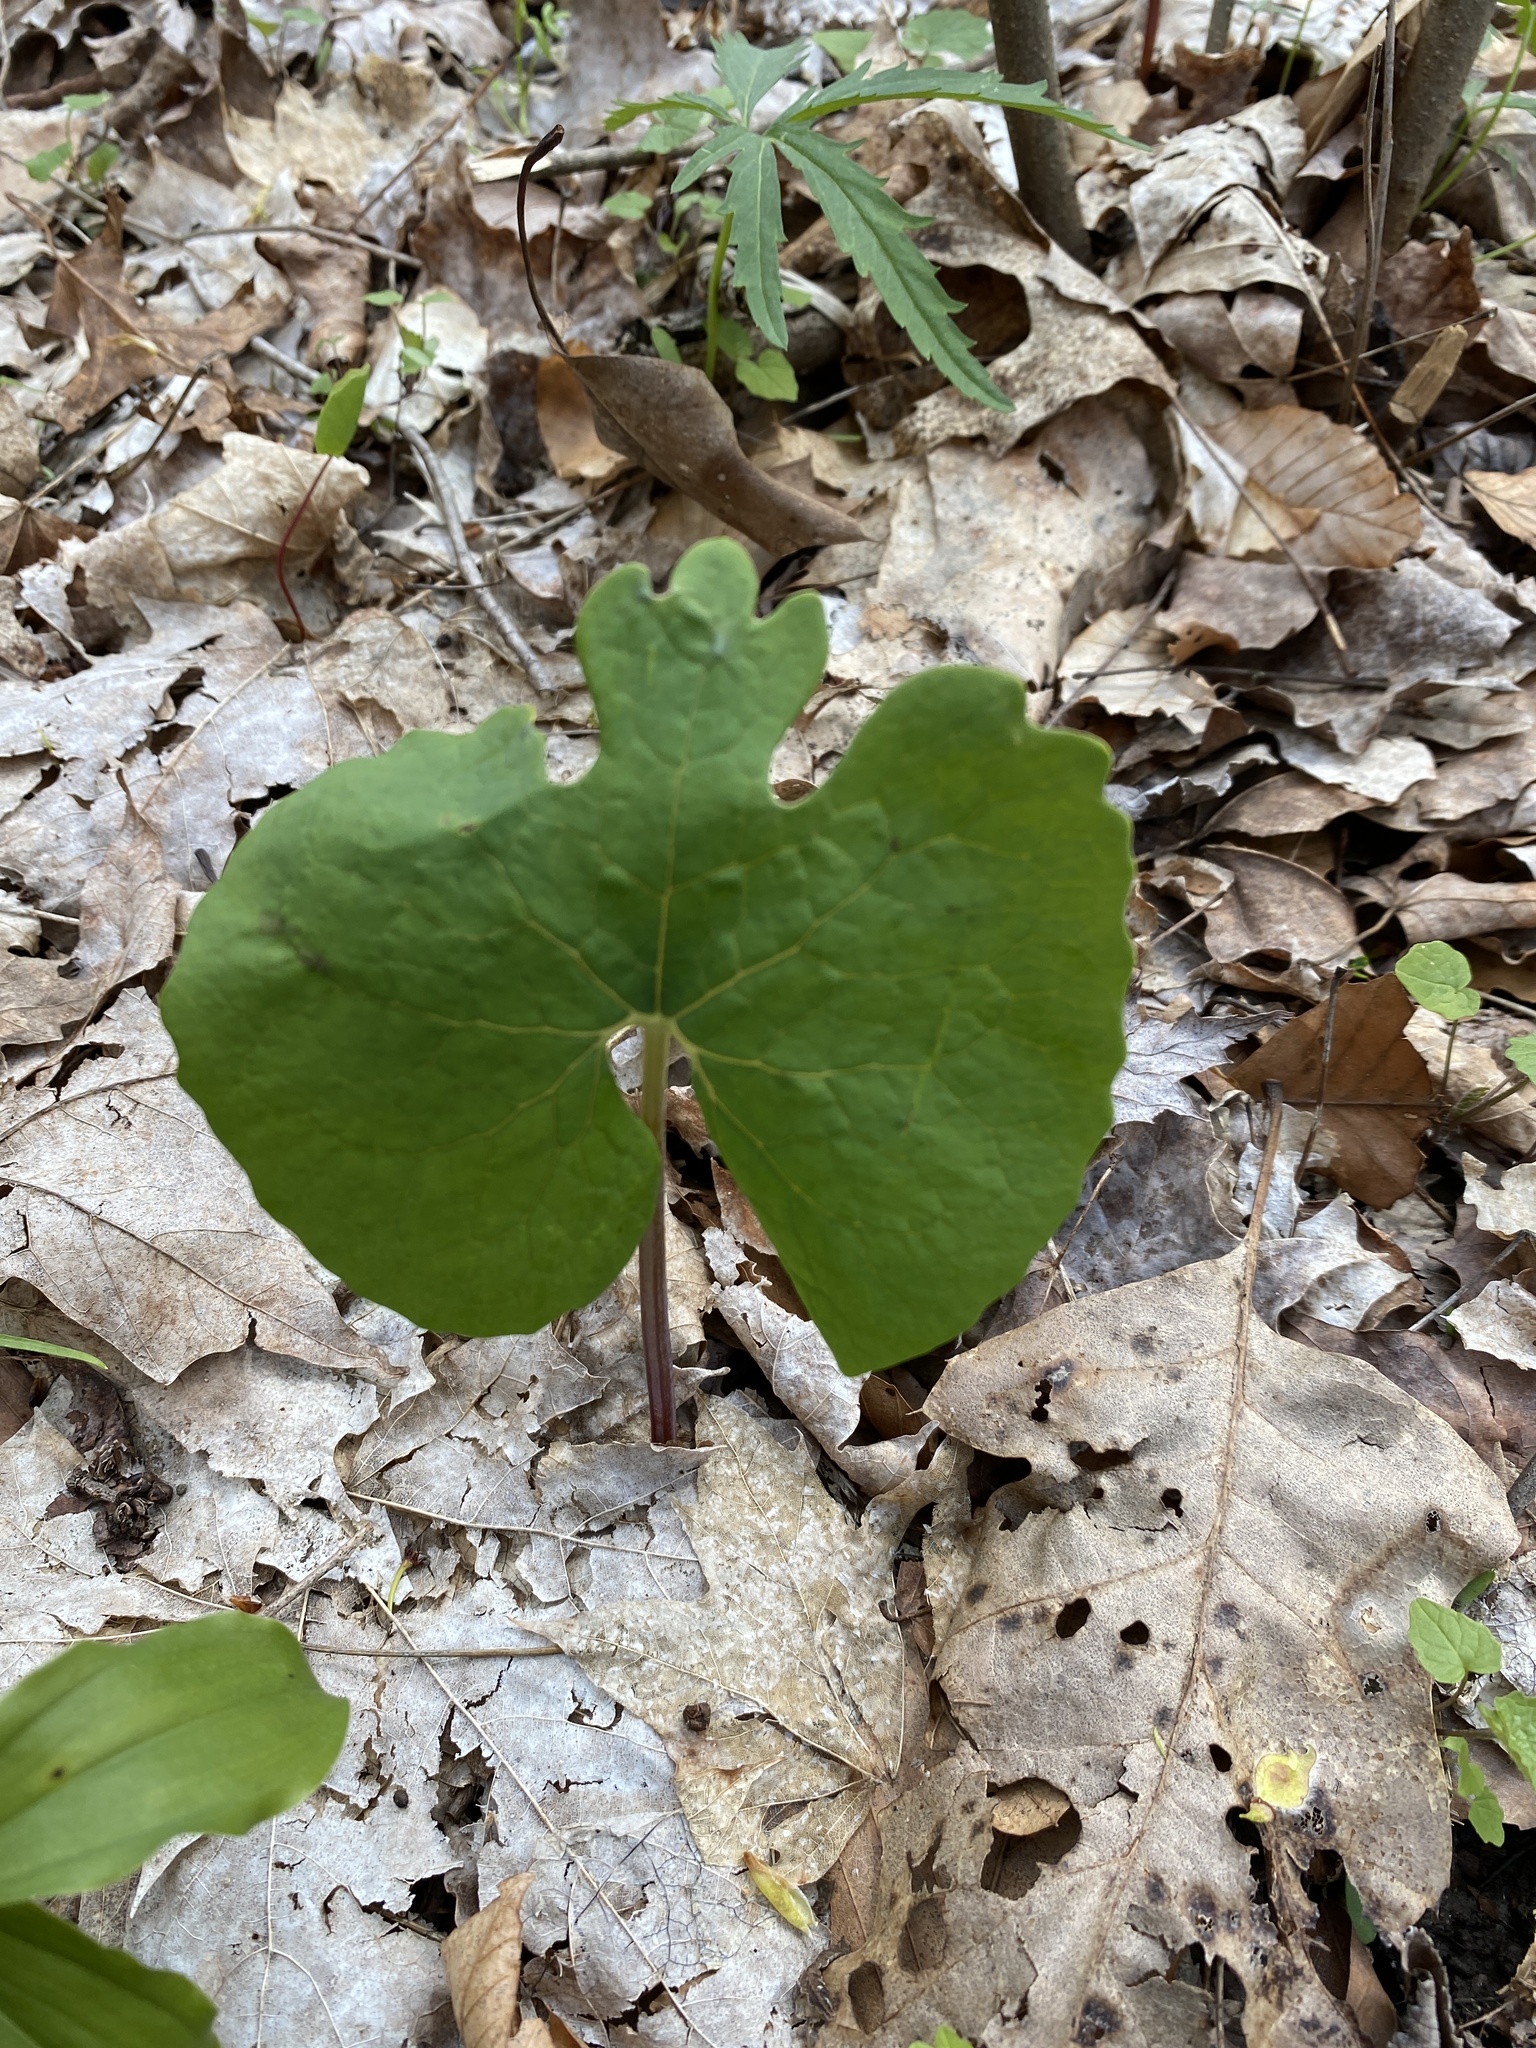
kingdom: Plantae
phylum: Tracheophyta
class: Magnoliopsida
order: Ranunculales
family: Papaveraceae
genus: Sanguinaria
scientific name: Sanguinaria canadensis
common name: Bloodroot
